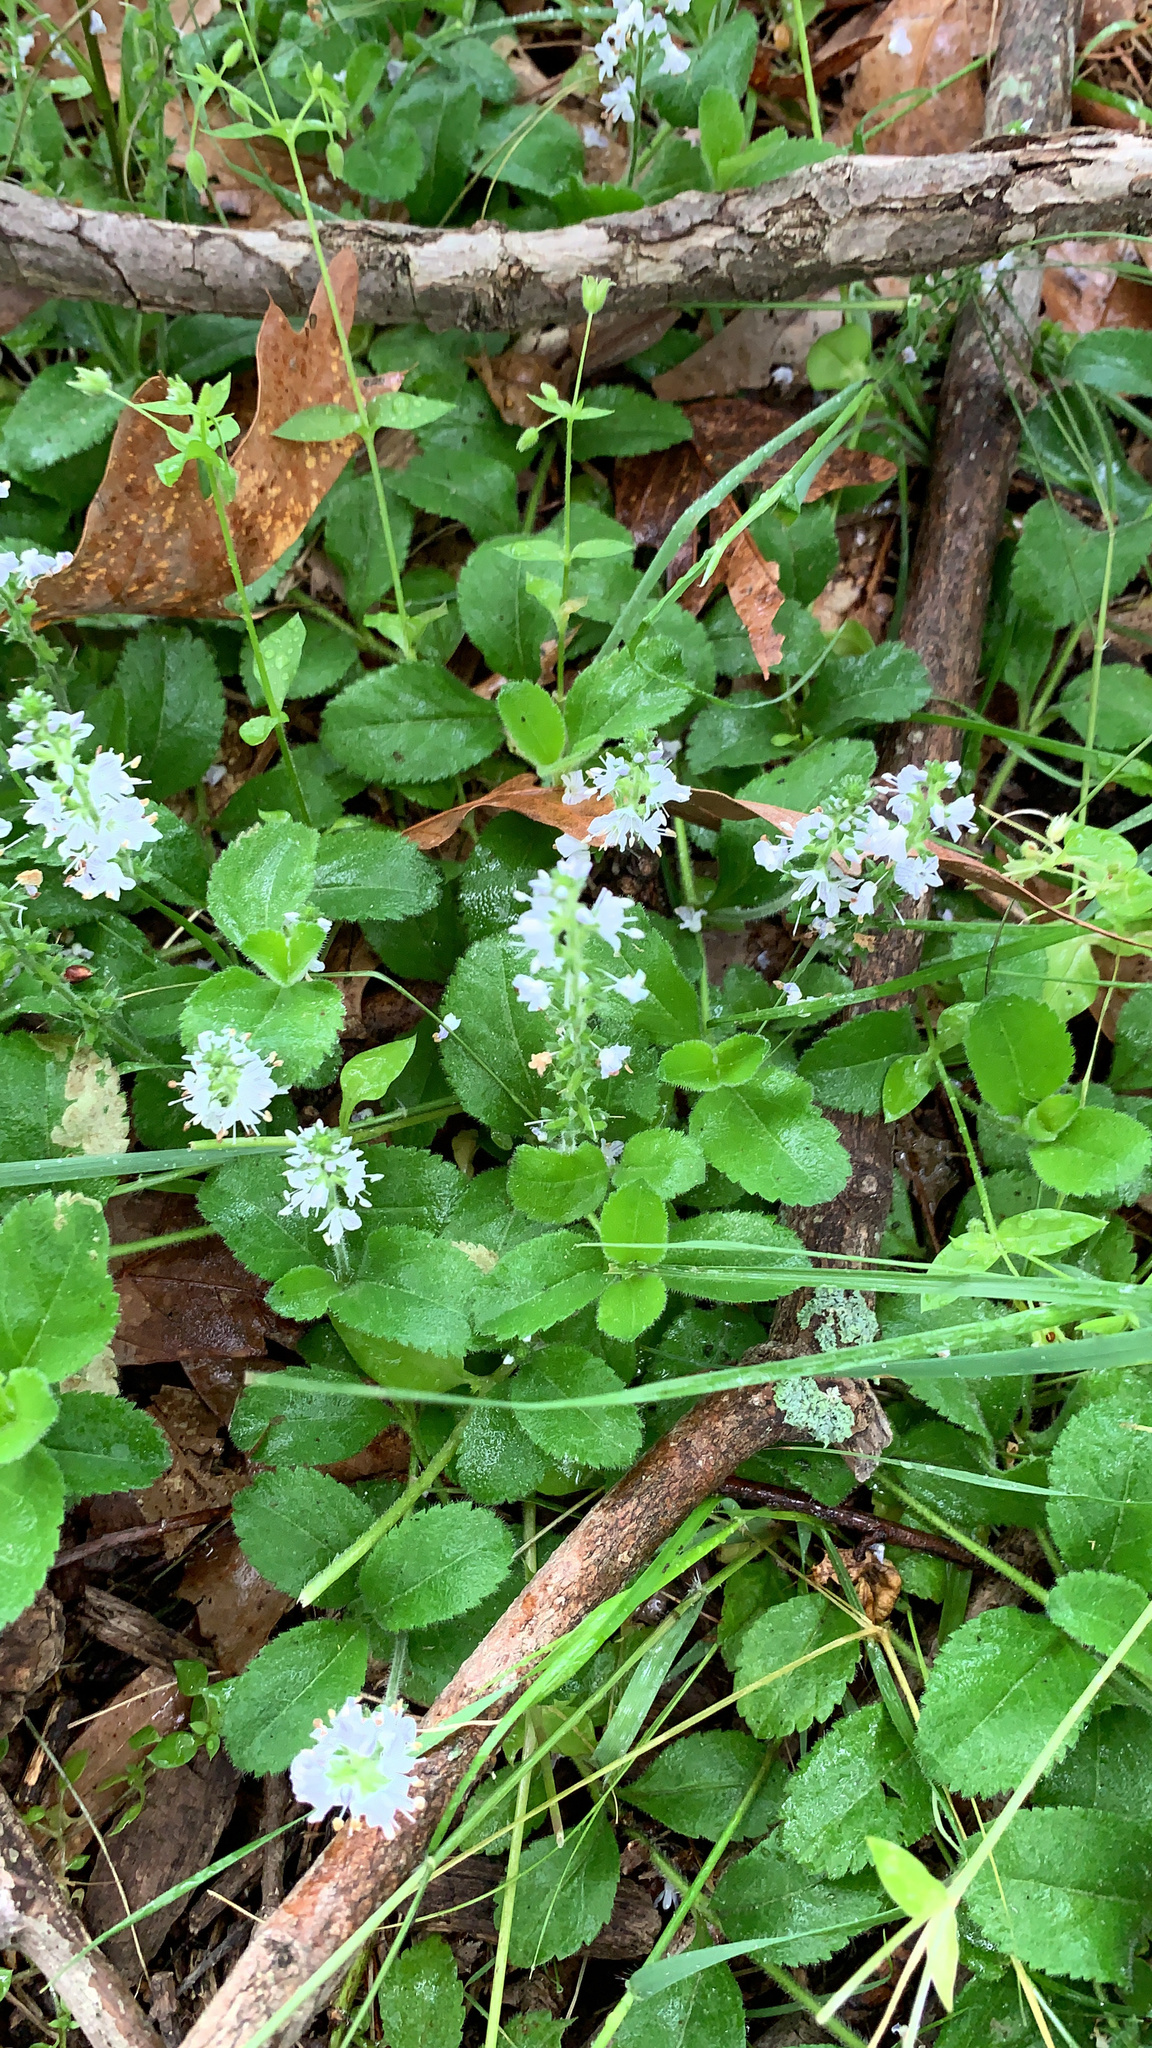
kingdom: Plantae
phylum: Tracheophyta
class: Magnoliopsida
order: Lamiales
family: Plantaginaceae
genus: Veronica
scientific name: Veronica officinalis
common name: Common speedwell
